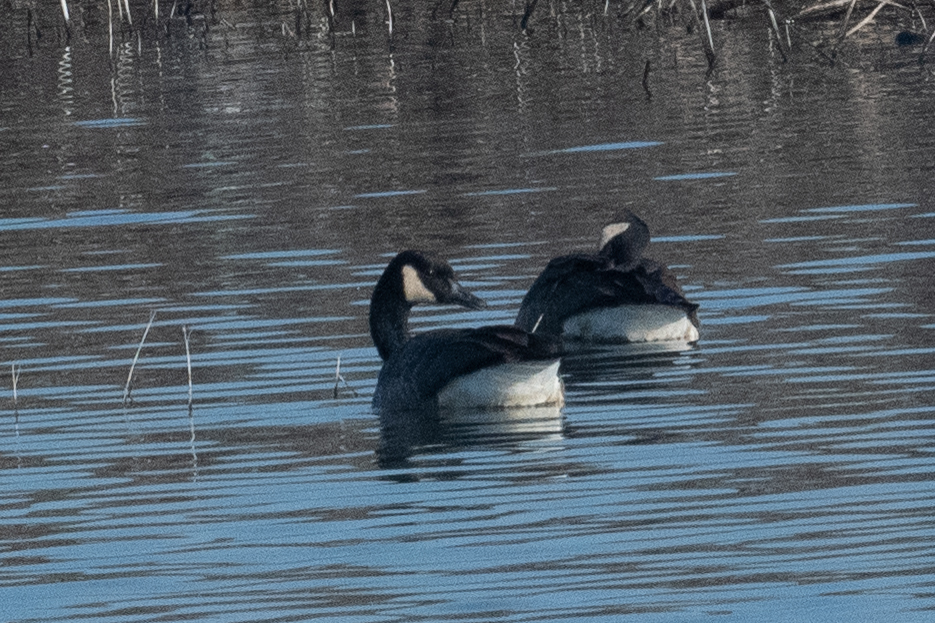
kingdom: Animalia
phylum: Chordata
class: Aves
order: Anseriformes
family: Anatidae
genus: Branta
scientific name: Branta canadensis
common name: Canada goose
